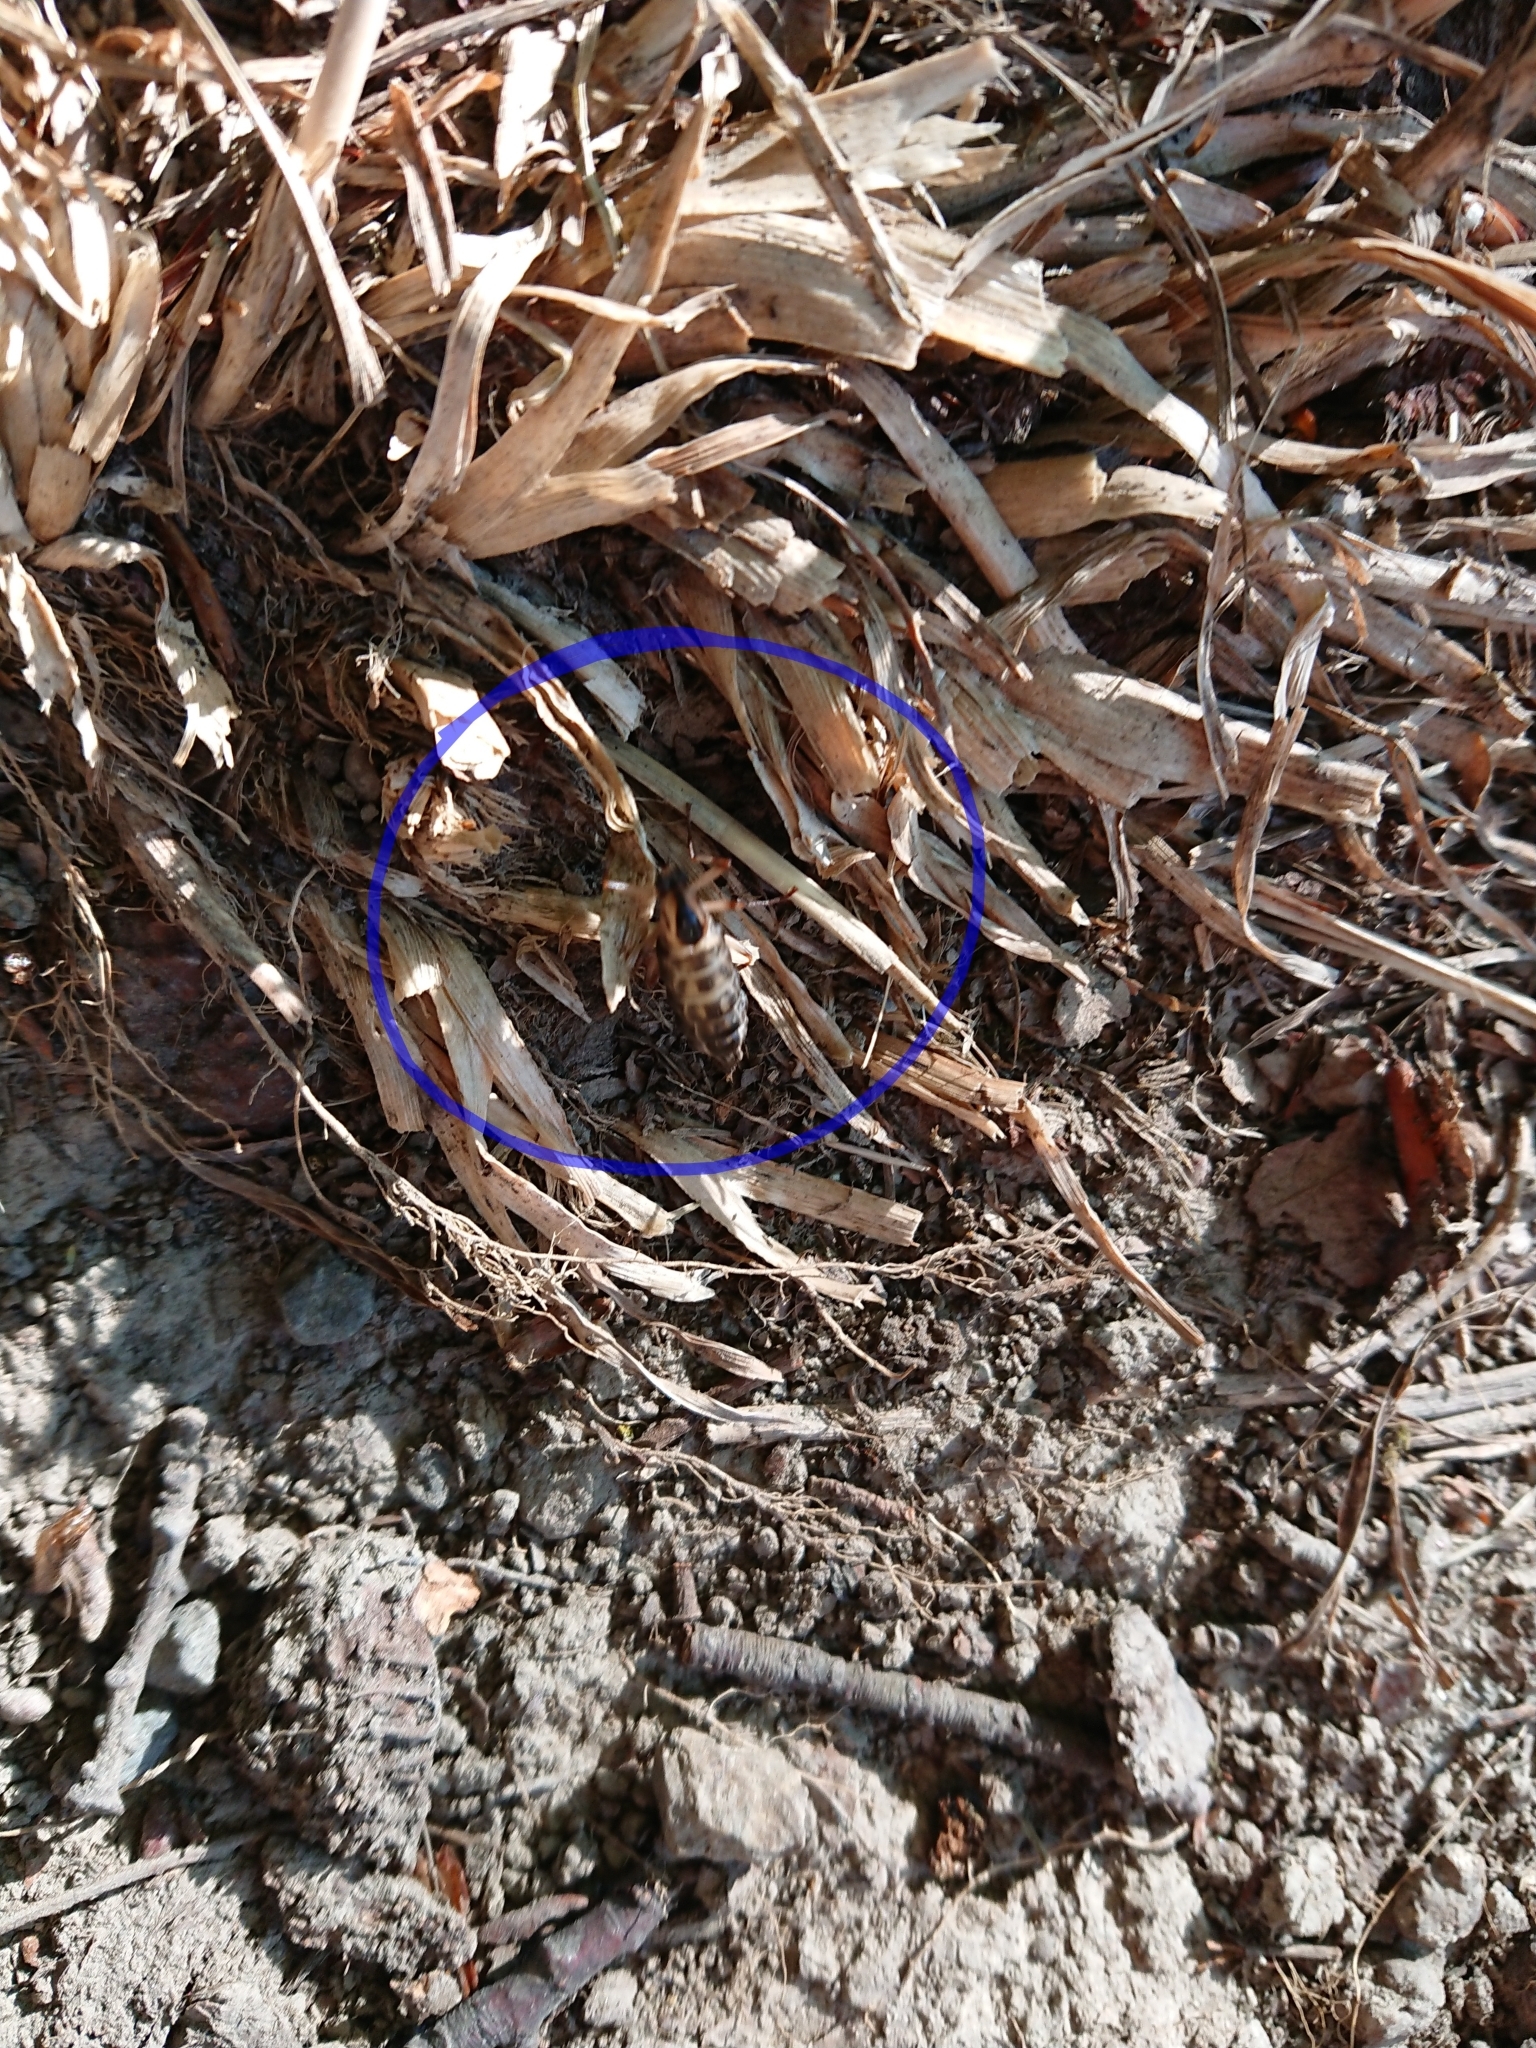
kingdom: Animalia
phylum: Arthropoda
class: Insecta
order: Diptera
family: Stratiomyidae
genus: Boreoides
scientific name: Boreoides tasmaniensis
